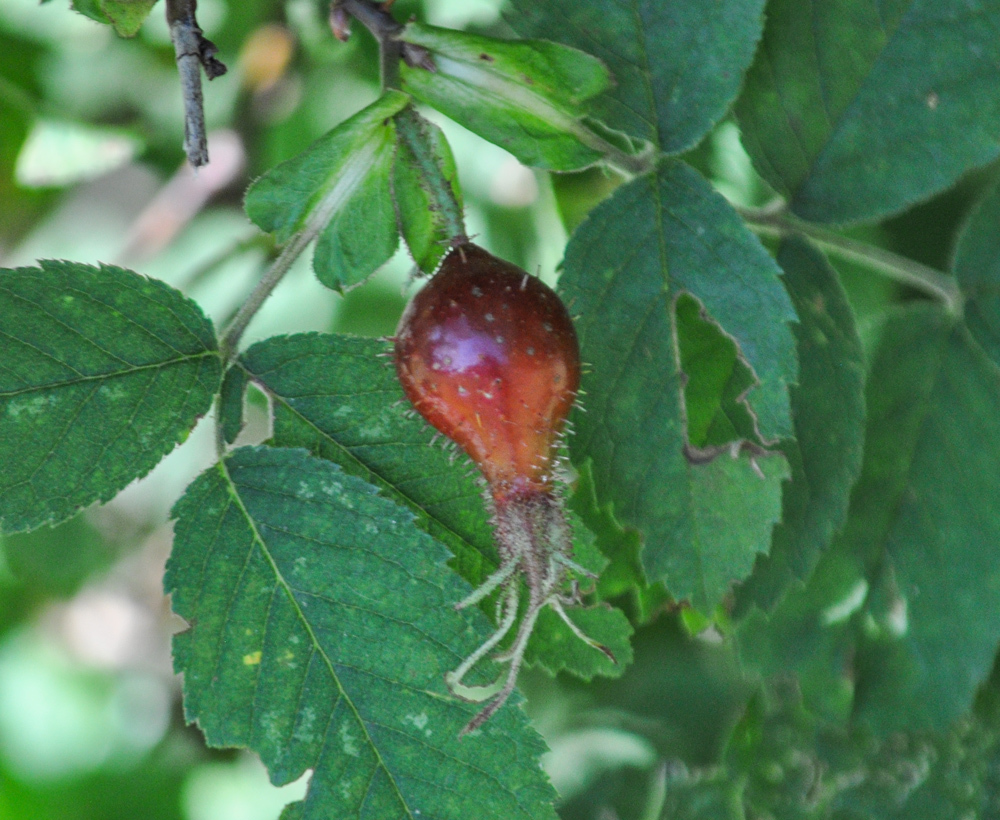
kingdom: Plantae
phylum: Tracheophyta
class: Magnoliopsida
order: Rosales
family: Rosaceae
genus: Rosa
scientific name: Rosa villosa
